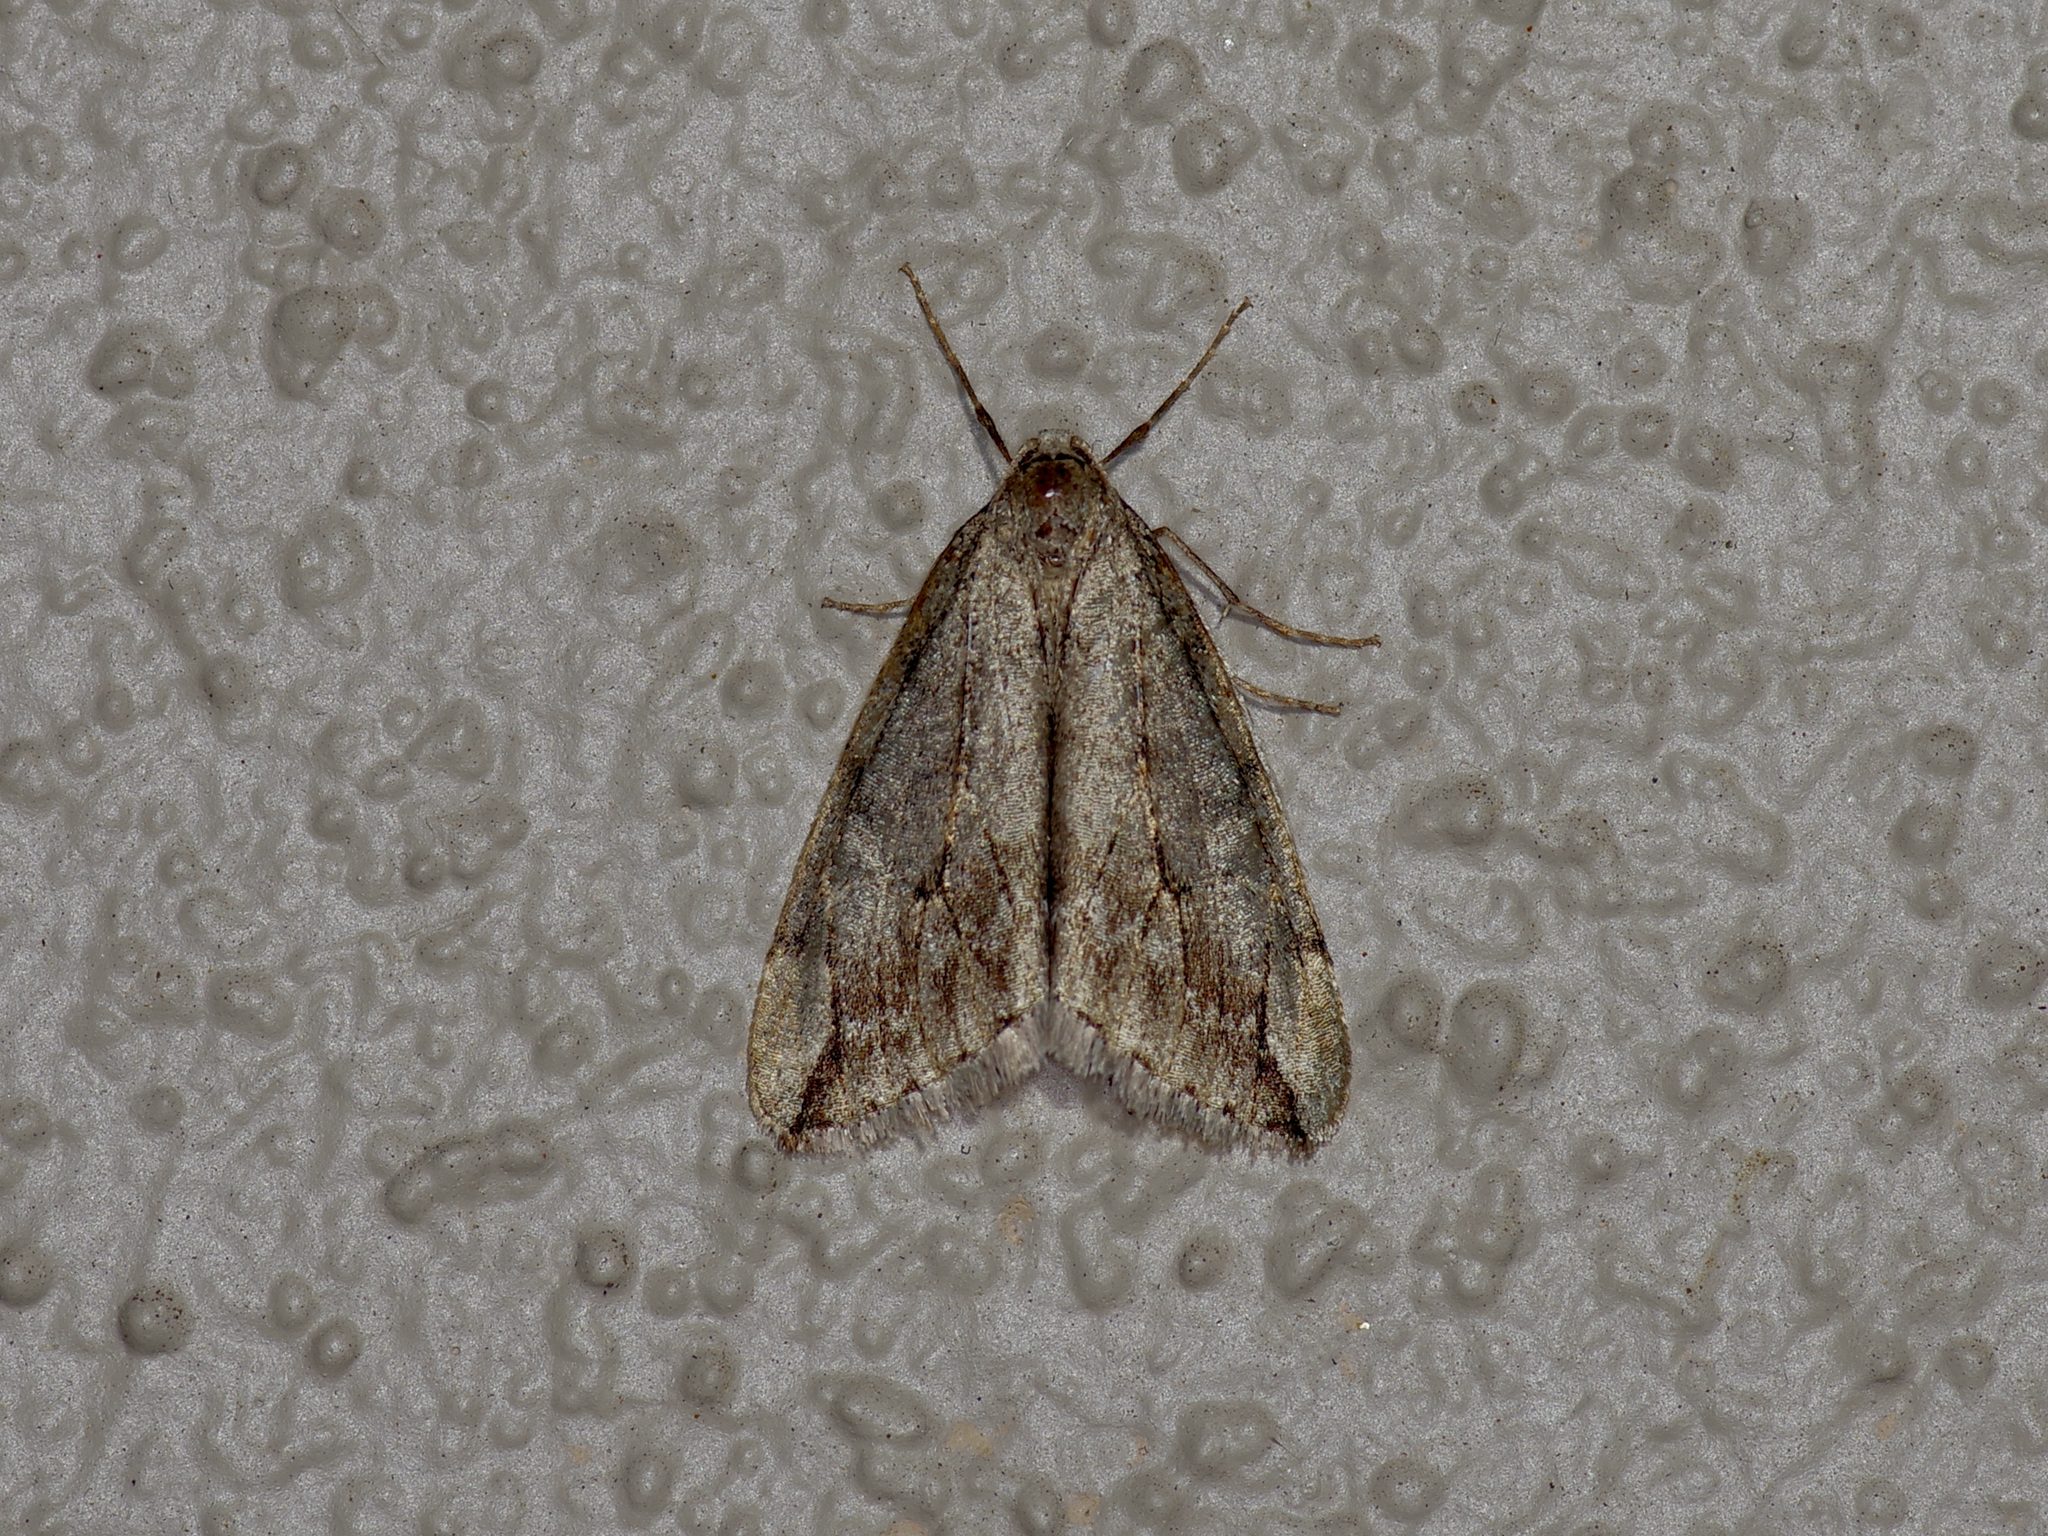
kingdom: Animalia
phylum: Arthropoda
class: Insecta
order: Lepidoptera
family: Geometridae
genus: Paleacrita
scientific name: Paleacrita vernata
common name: Spring cankerworm
